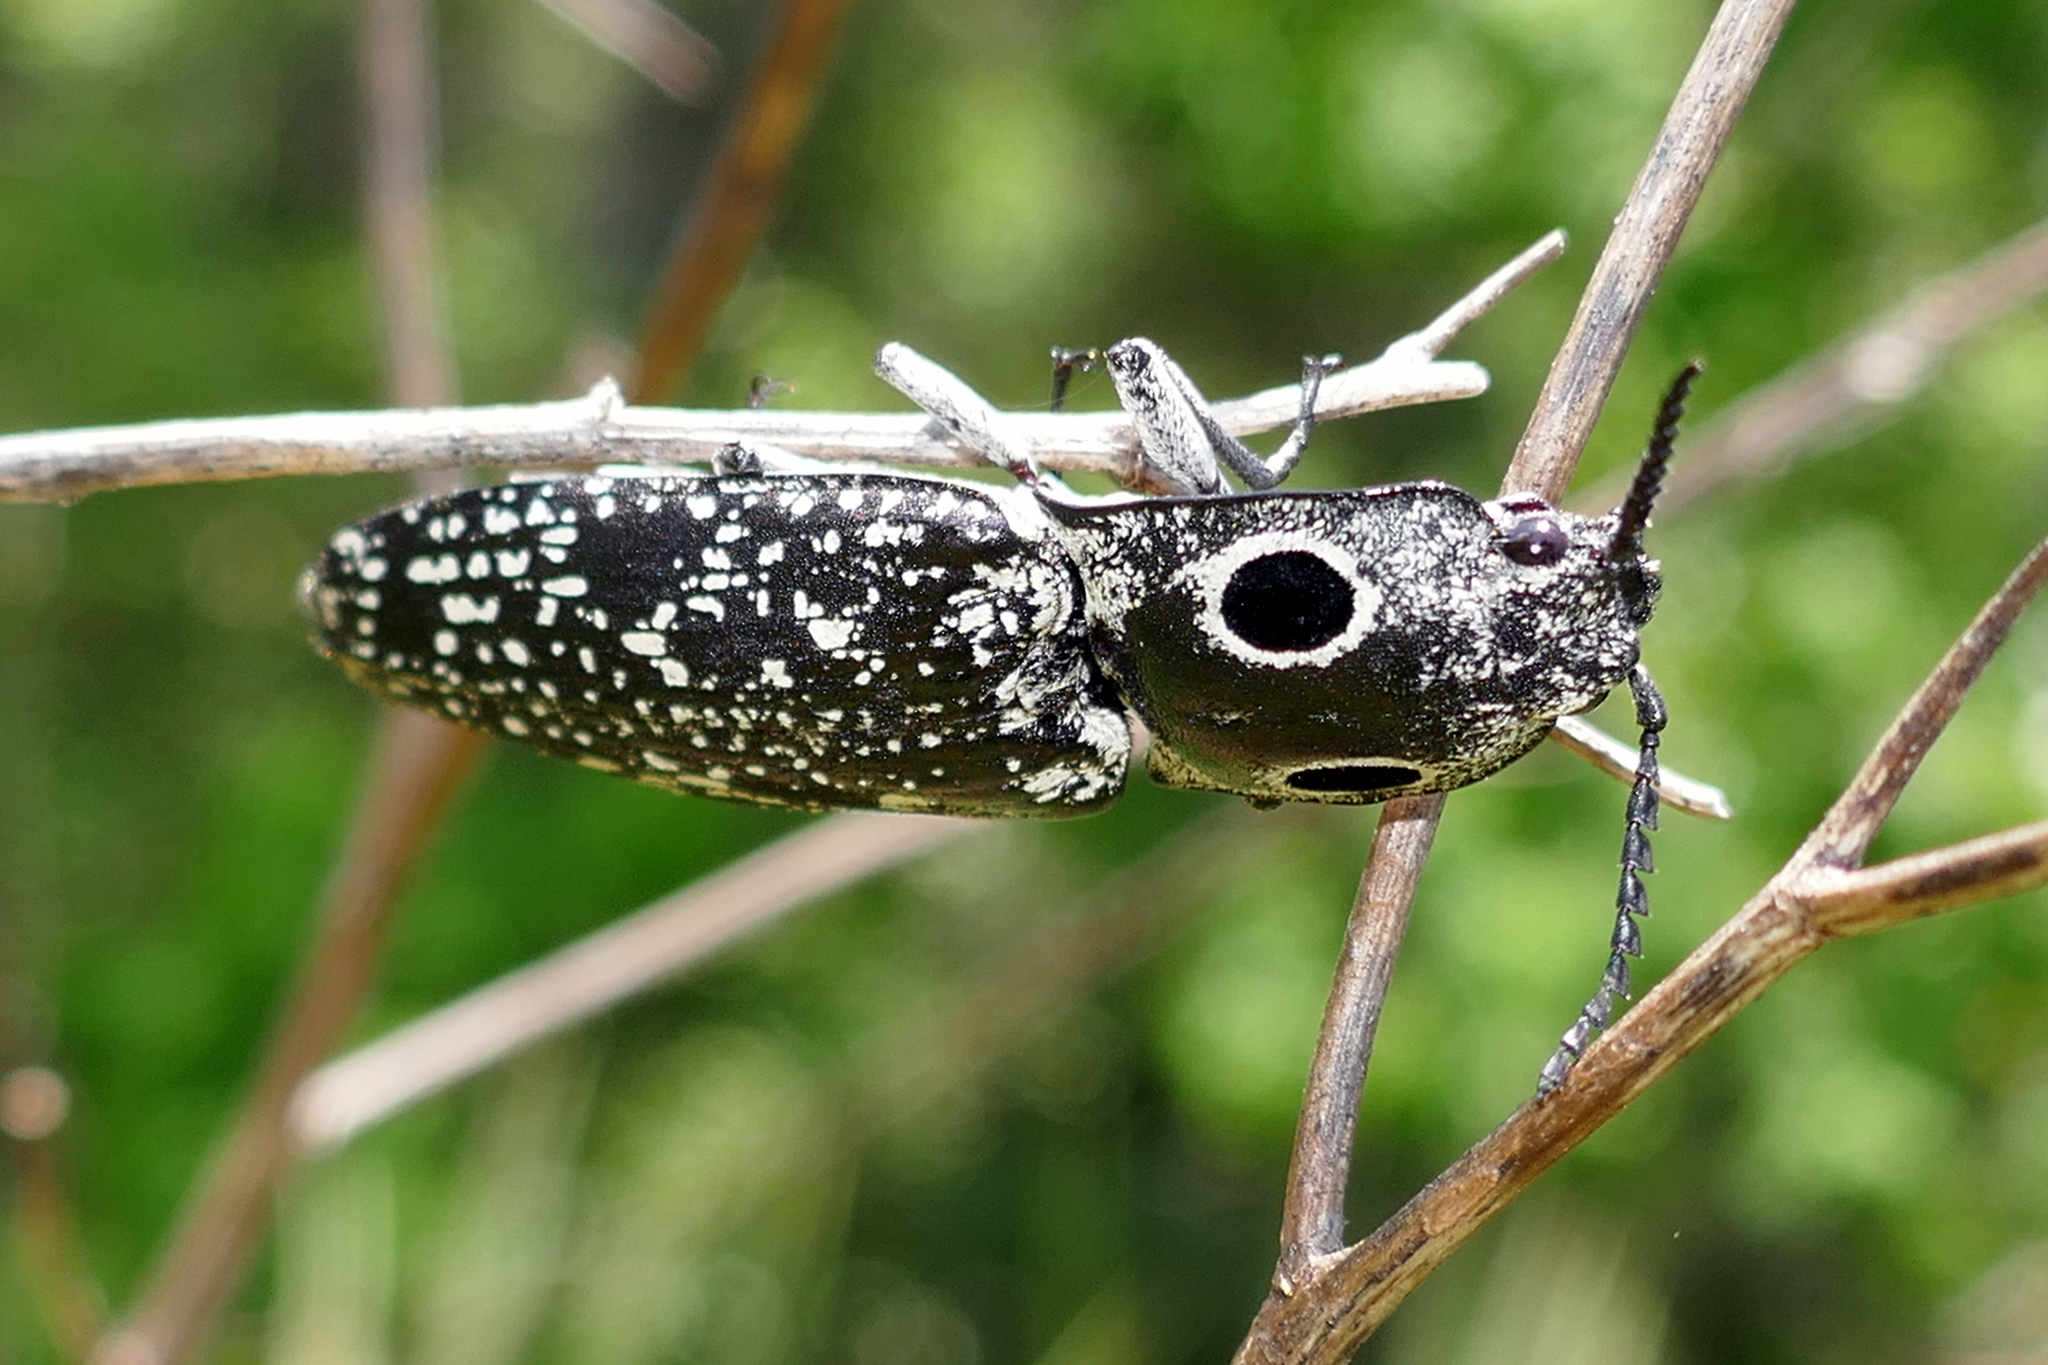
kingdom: Animalia
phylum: Arthropoda
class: Insecta
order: Coleoptera
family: Elateridae
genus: Alaus
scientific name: Alaus oculatus
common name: Eastern eyed click beetle
